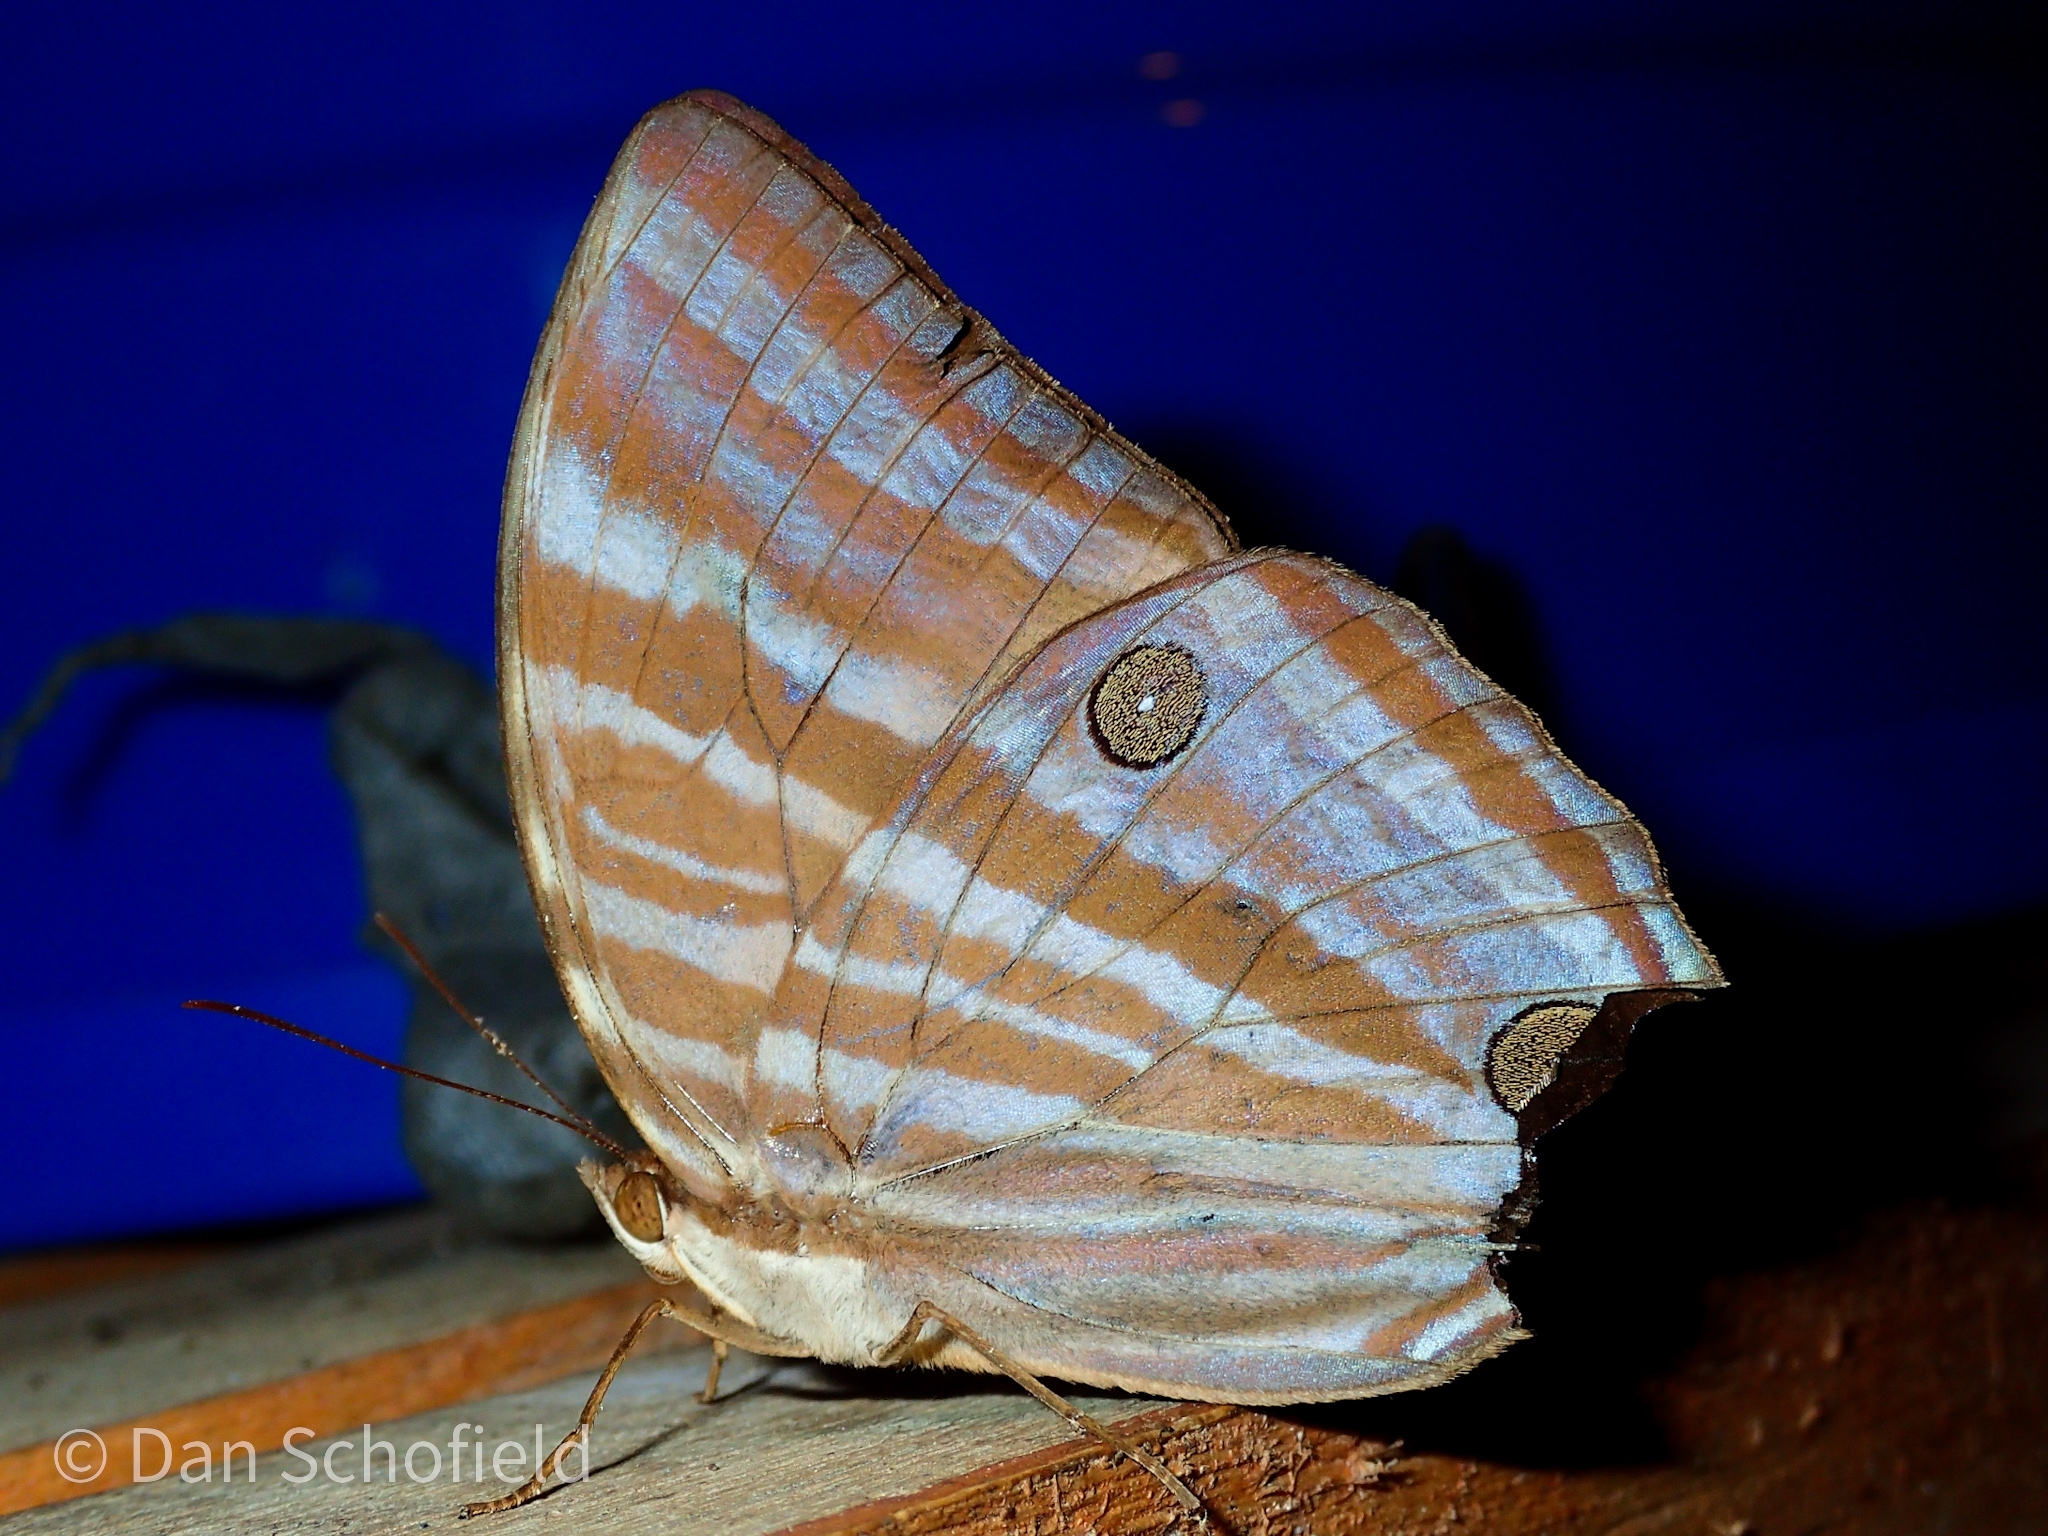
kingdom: Animalia
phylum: Arthropoda
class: Insecta
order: Lepidoptera
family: Nymphalidae
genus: Amathusia
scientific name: Amathusia phidippus
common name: Palm king
